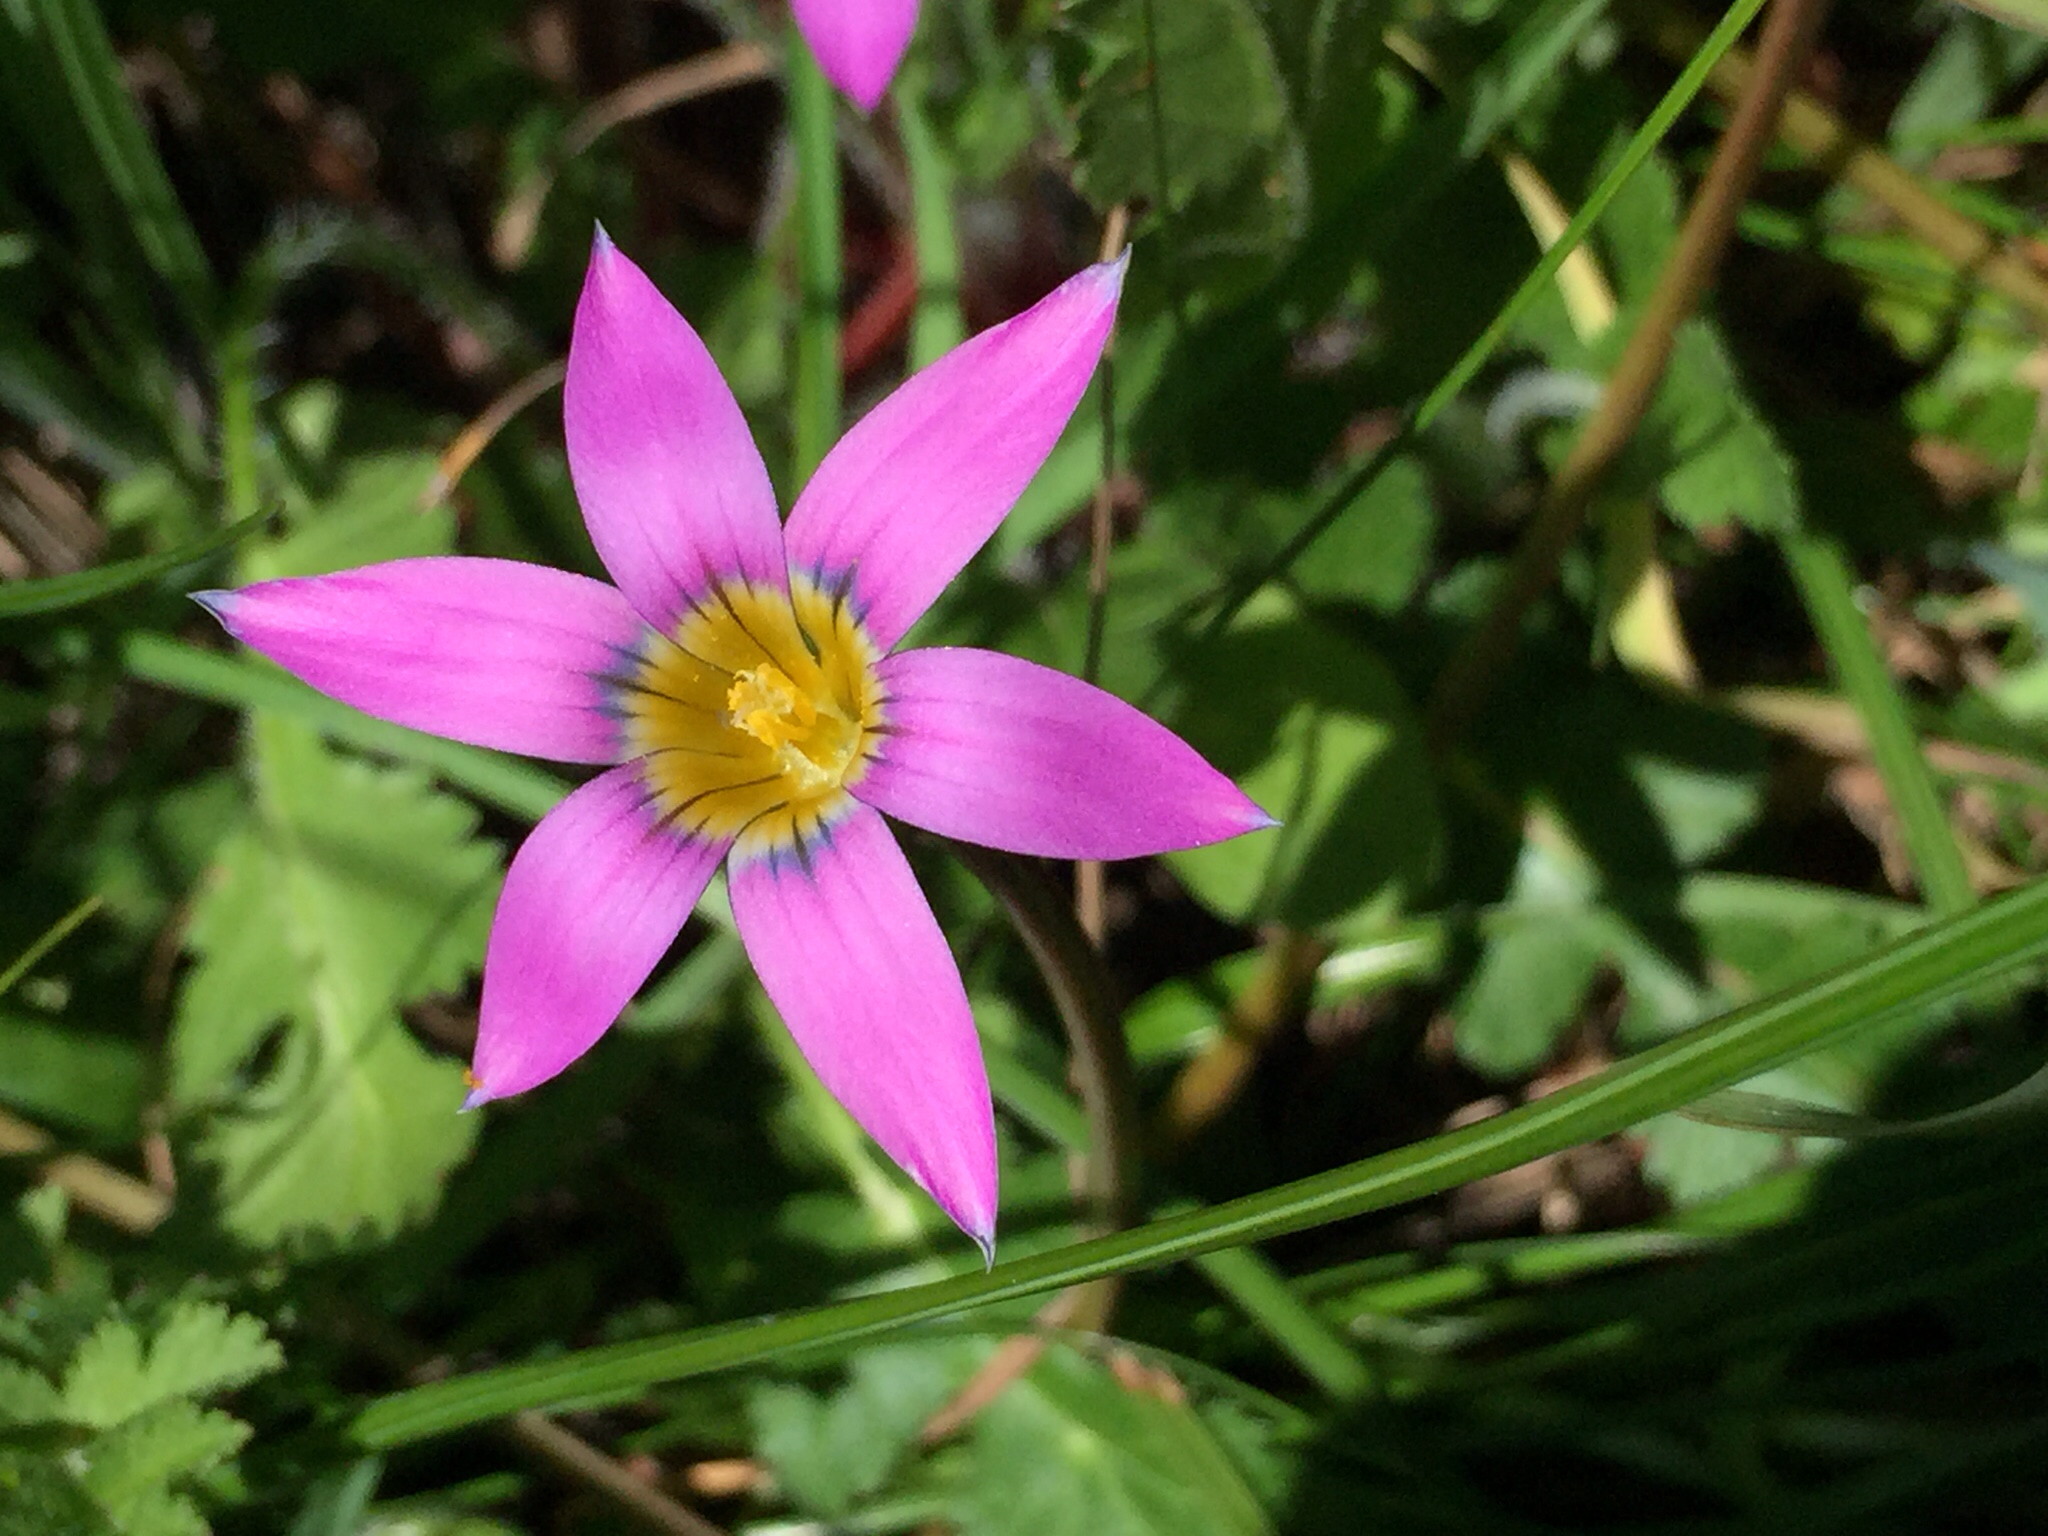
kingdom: Plantae
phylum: Tracheophyta
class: Liliopsida
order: Asparagales
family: Iridaceae
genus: Romulea
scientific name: Romulea rosea
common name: Oniongrass
